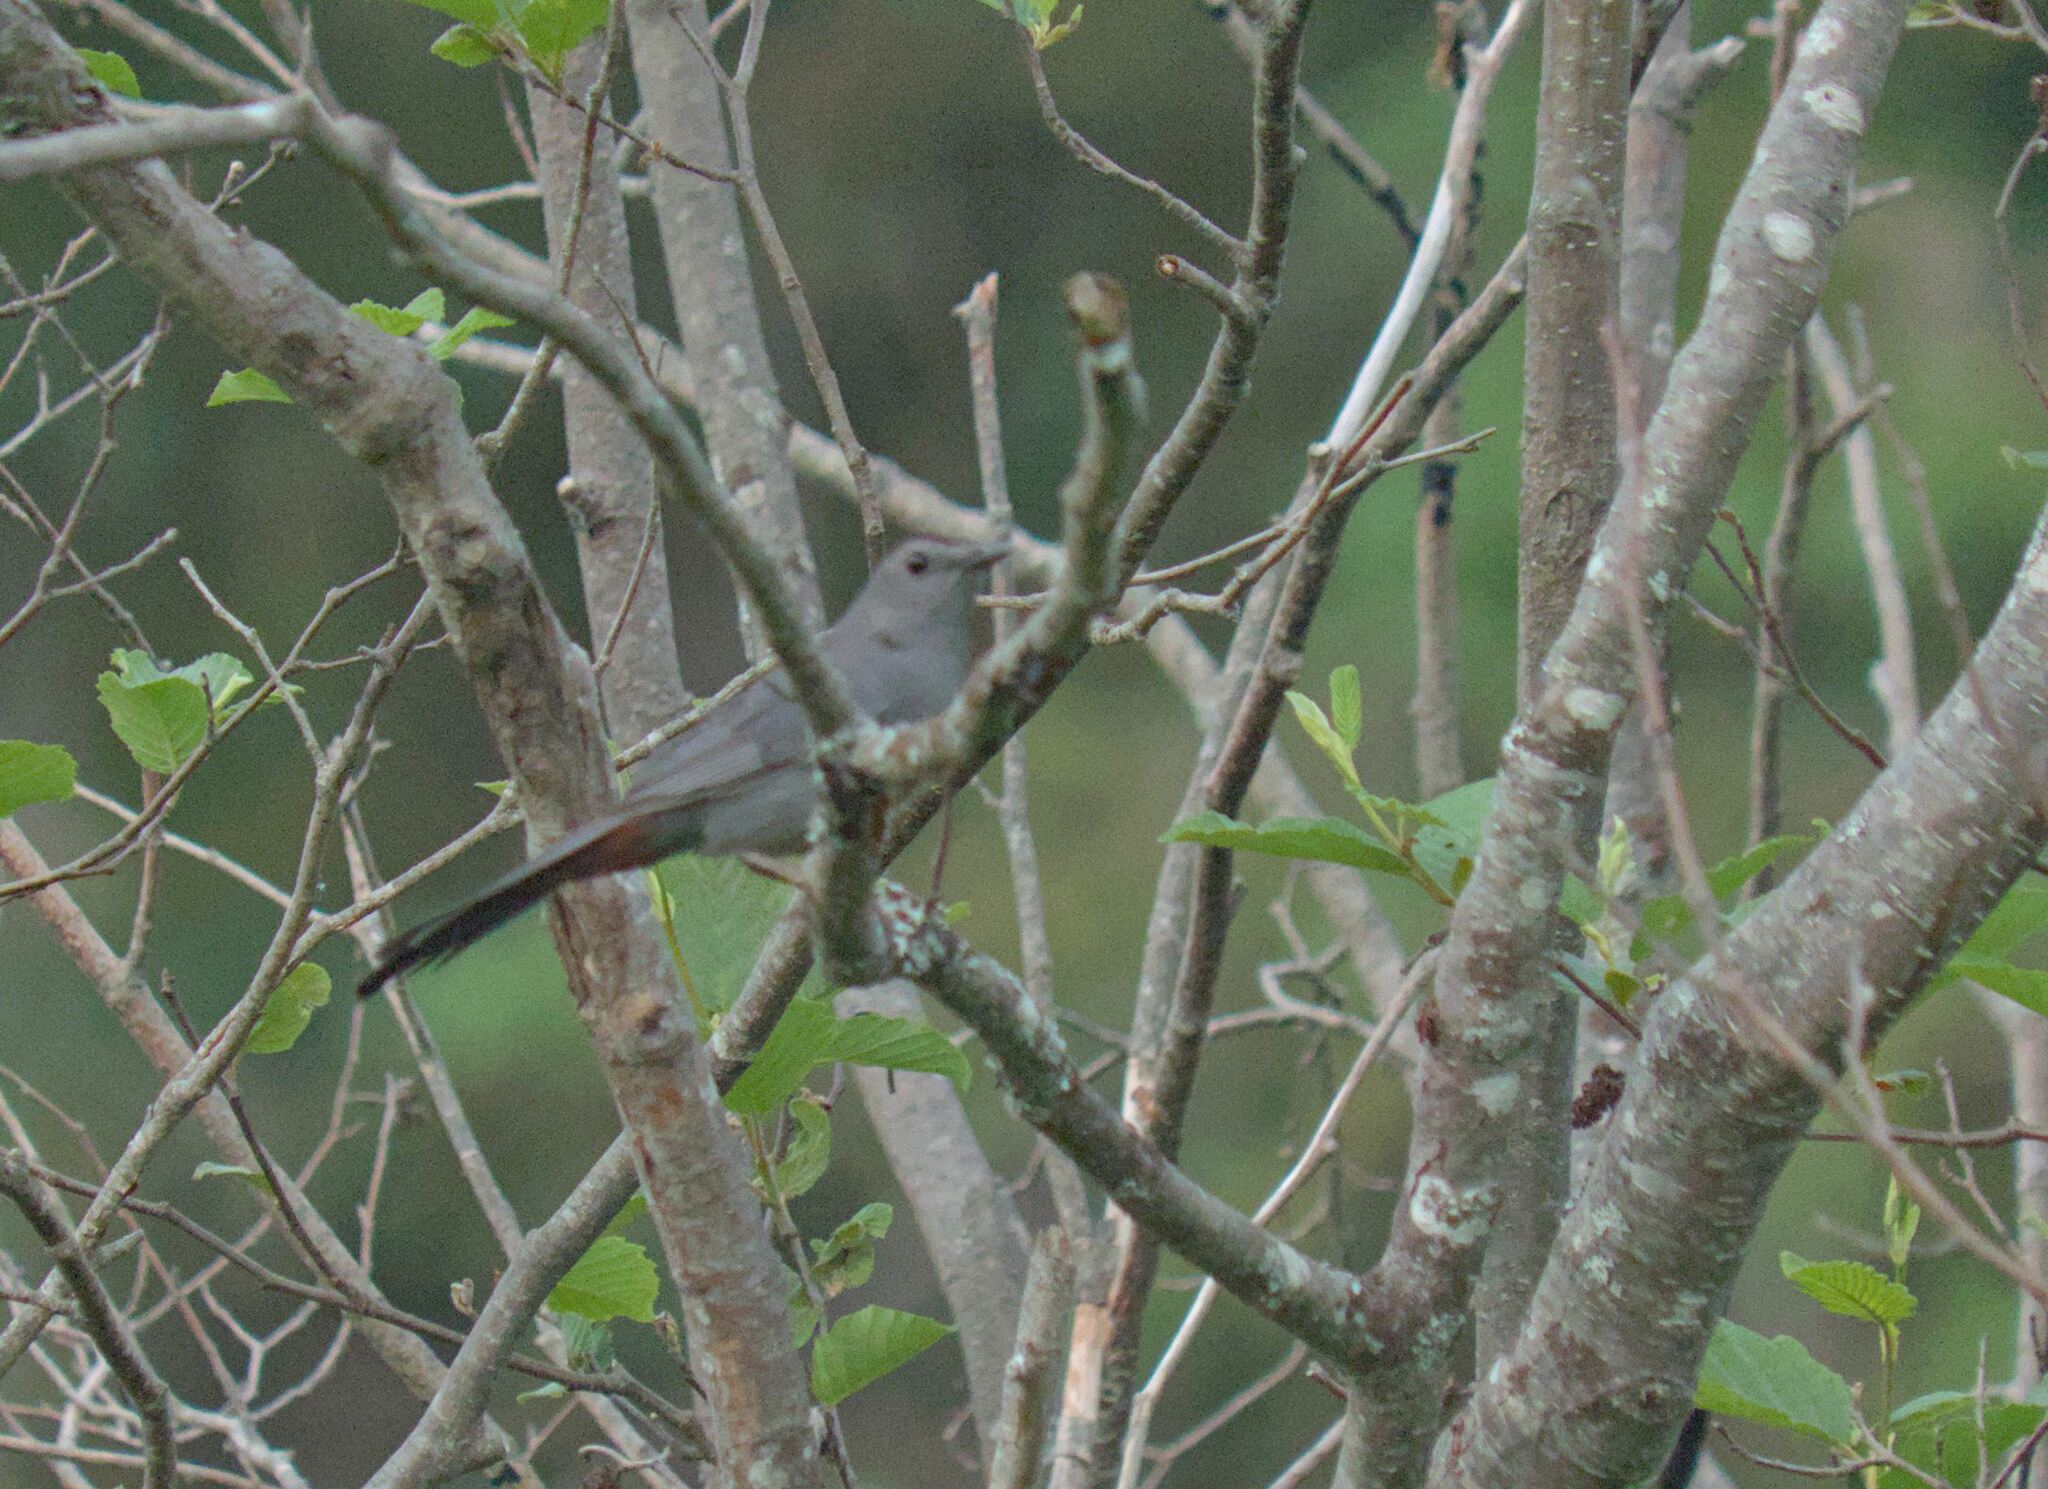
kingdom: Animalia
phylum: Chordata
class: Aves
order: Passeriformes
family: Mimidae
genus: Dumetella
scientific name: Dumetella carolinensis
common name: Gray catbird
